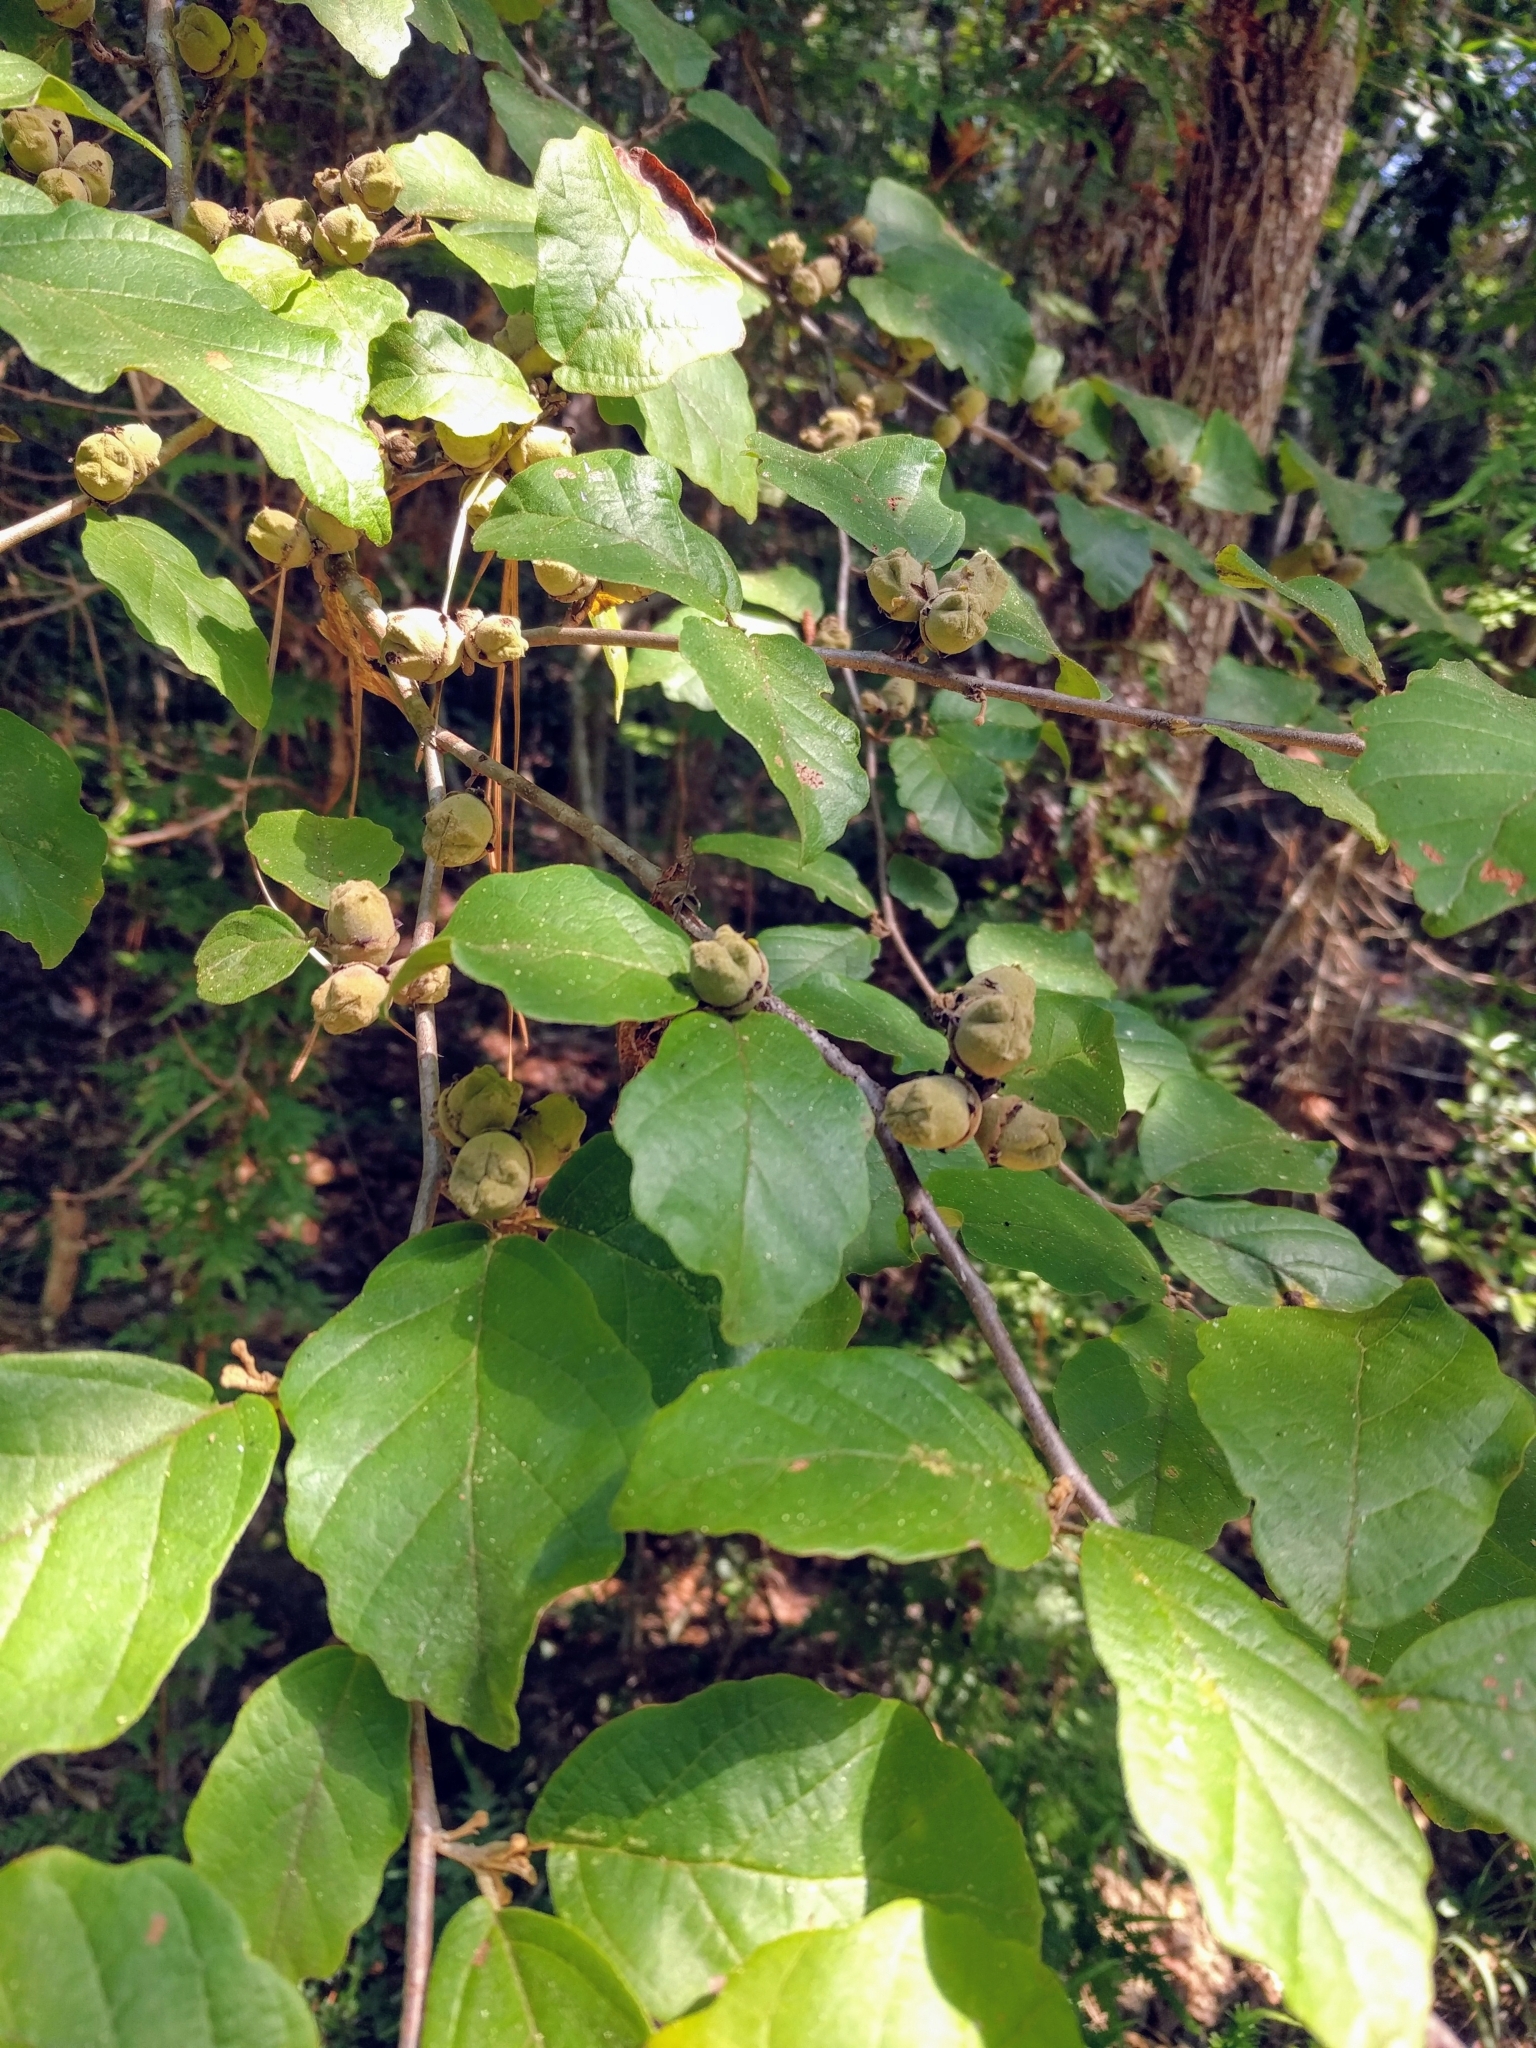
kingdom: Plantae
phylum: Tracheophyta
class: Magnoliopsida
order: Saxifragales
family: Hamamelidaceae
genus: Hamamelis
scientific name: Hamamelis virginiana
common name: Witch-hazel
